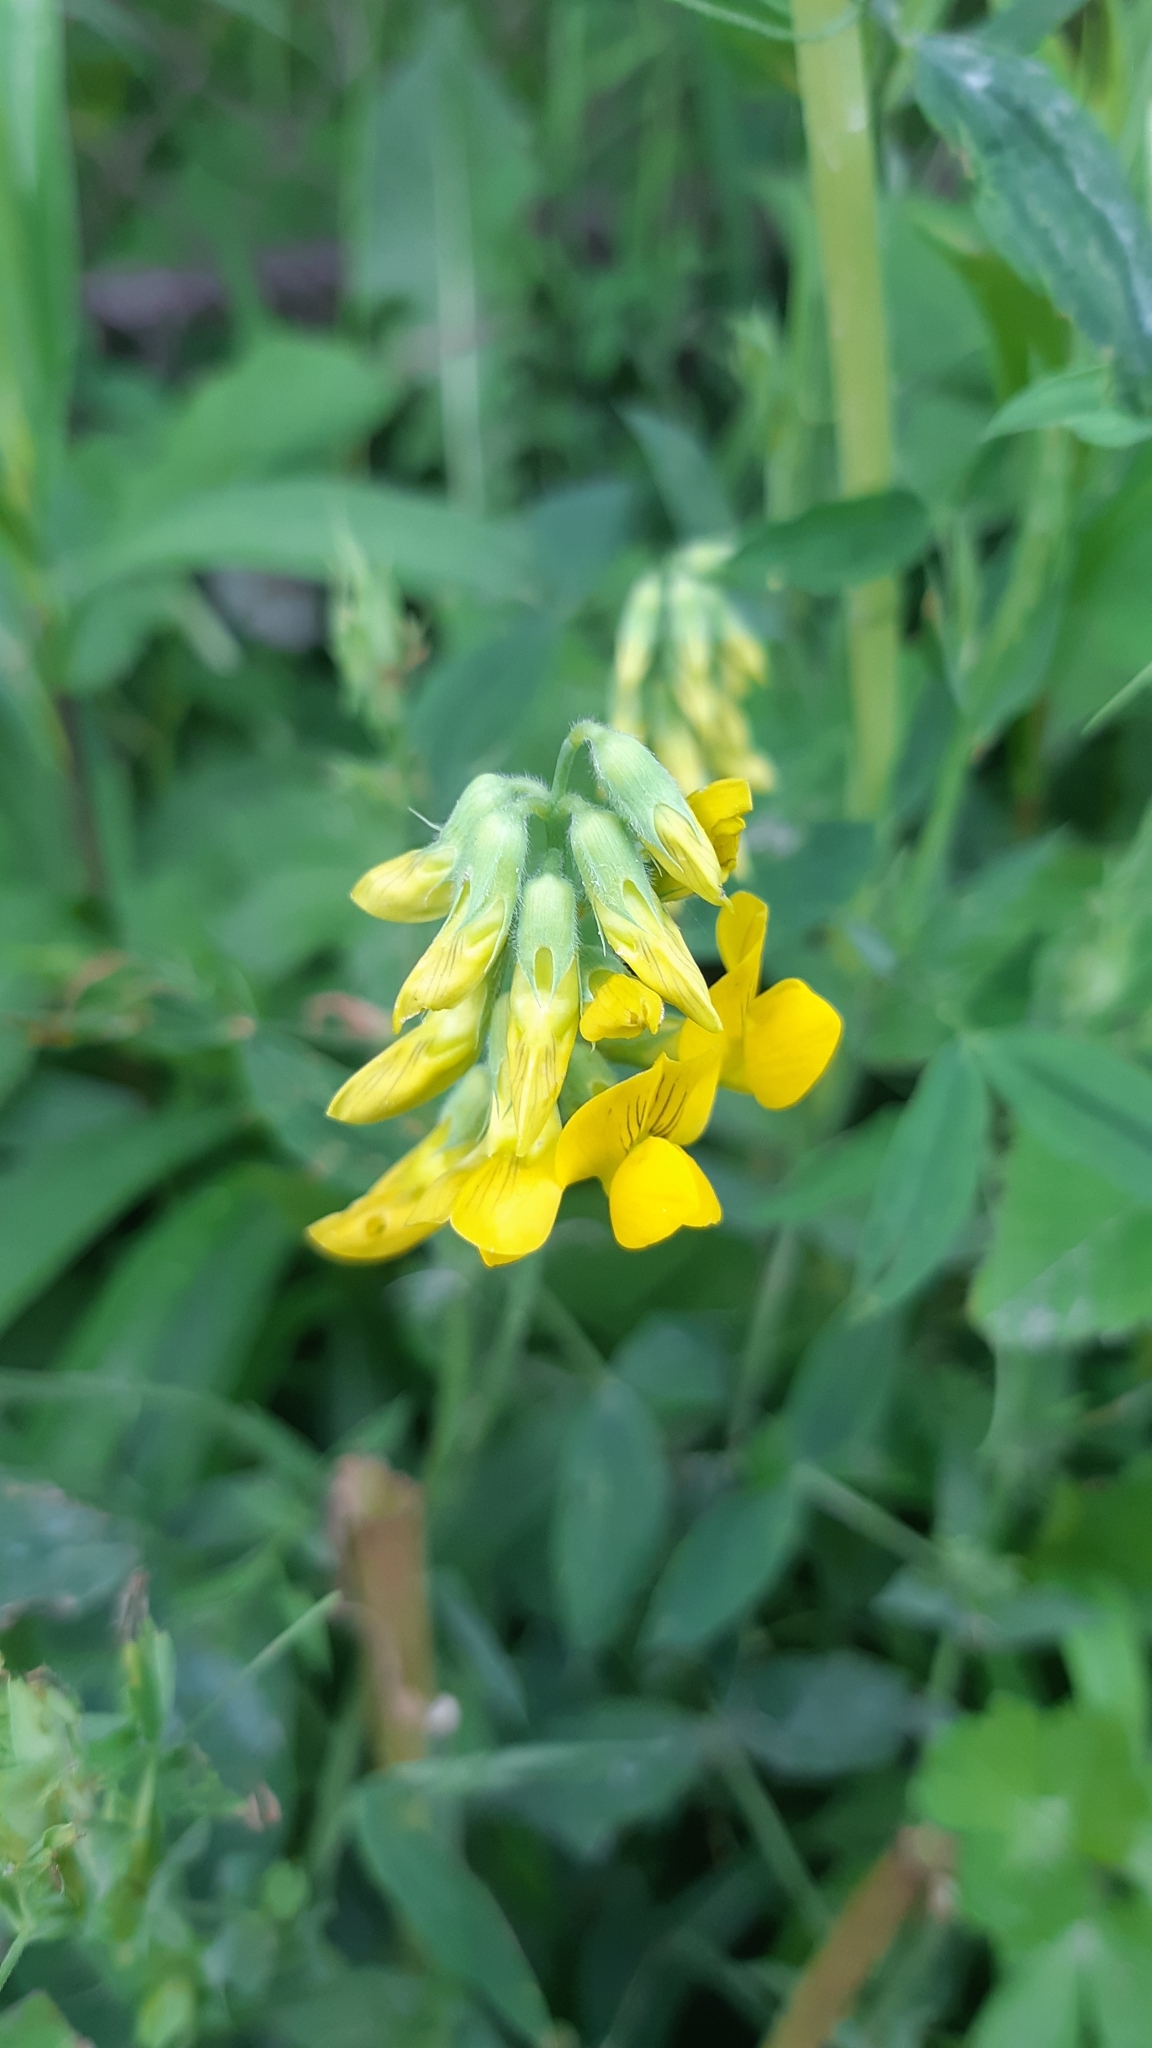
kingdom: Plantae
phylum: Tracheophyta
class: Magnoliopsida
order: Fabales
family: Fabaceae
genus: Lathyrus
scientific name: Lathyrus pratensis
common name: Meadow vetchling
